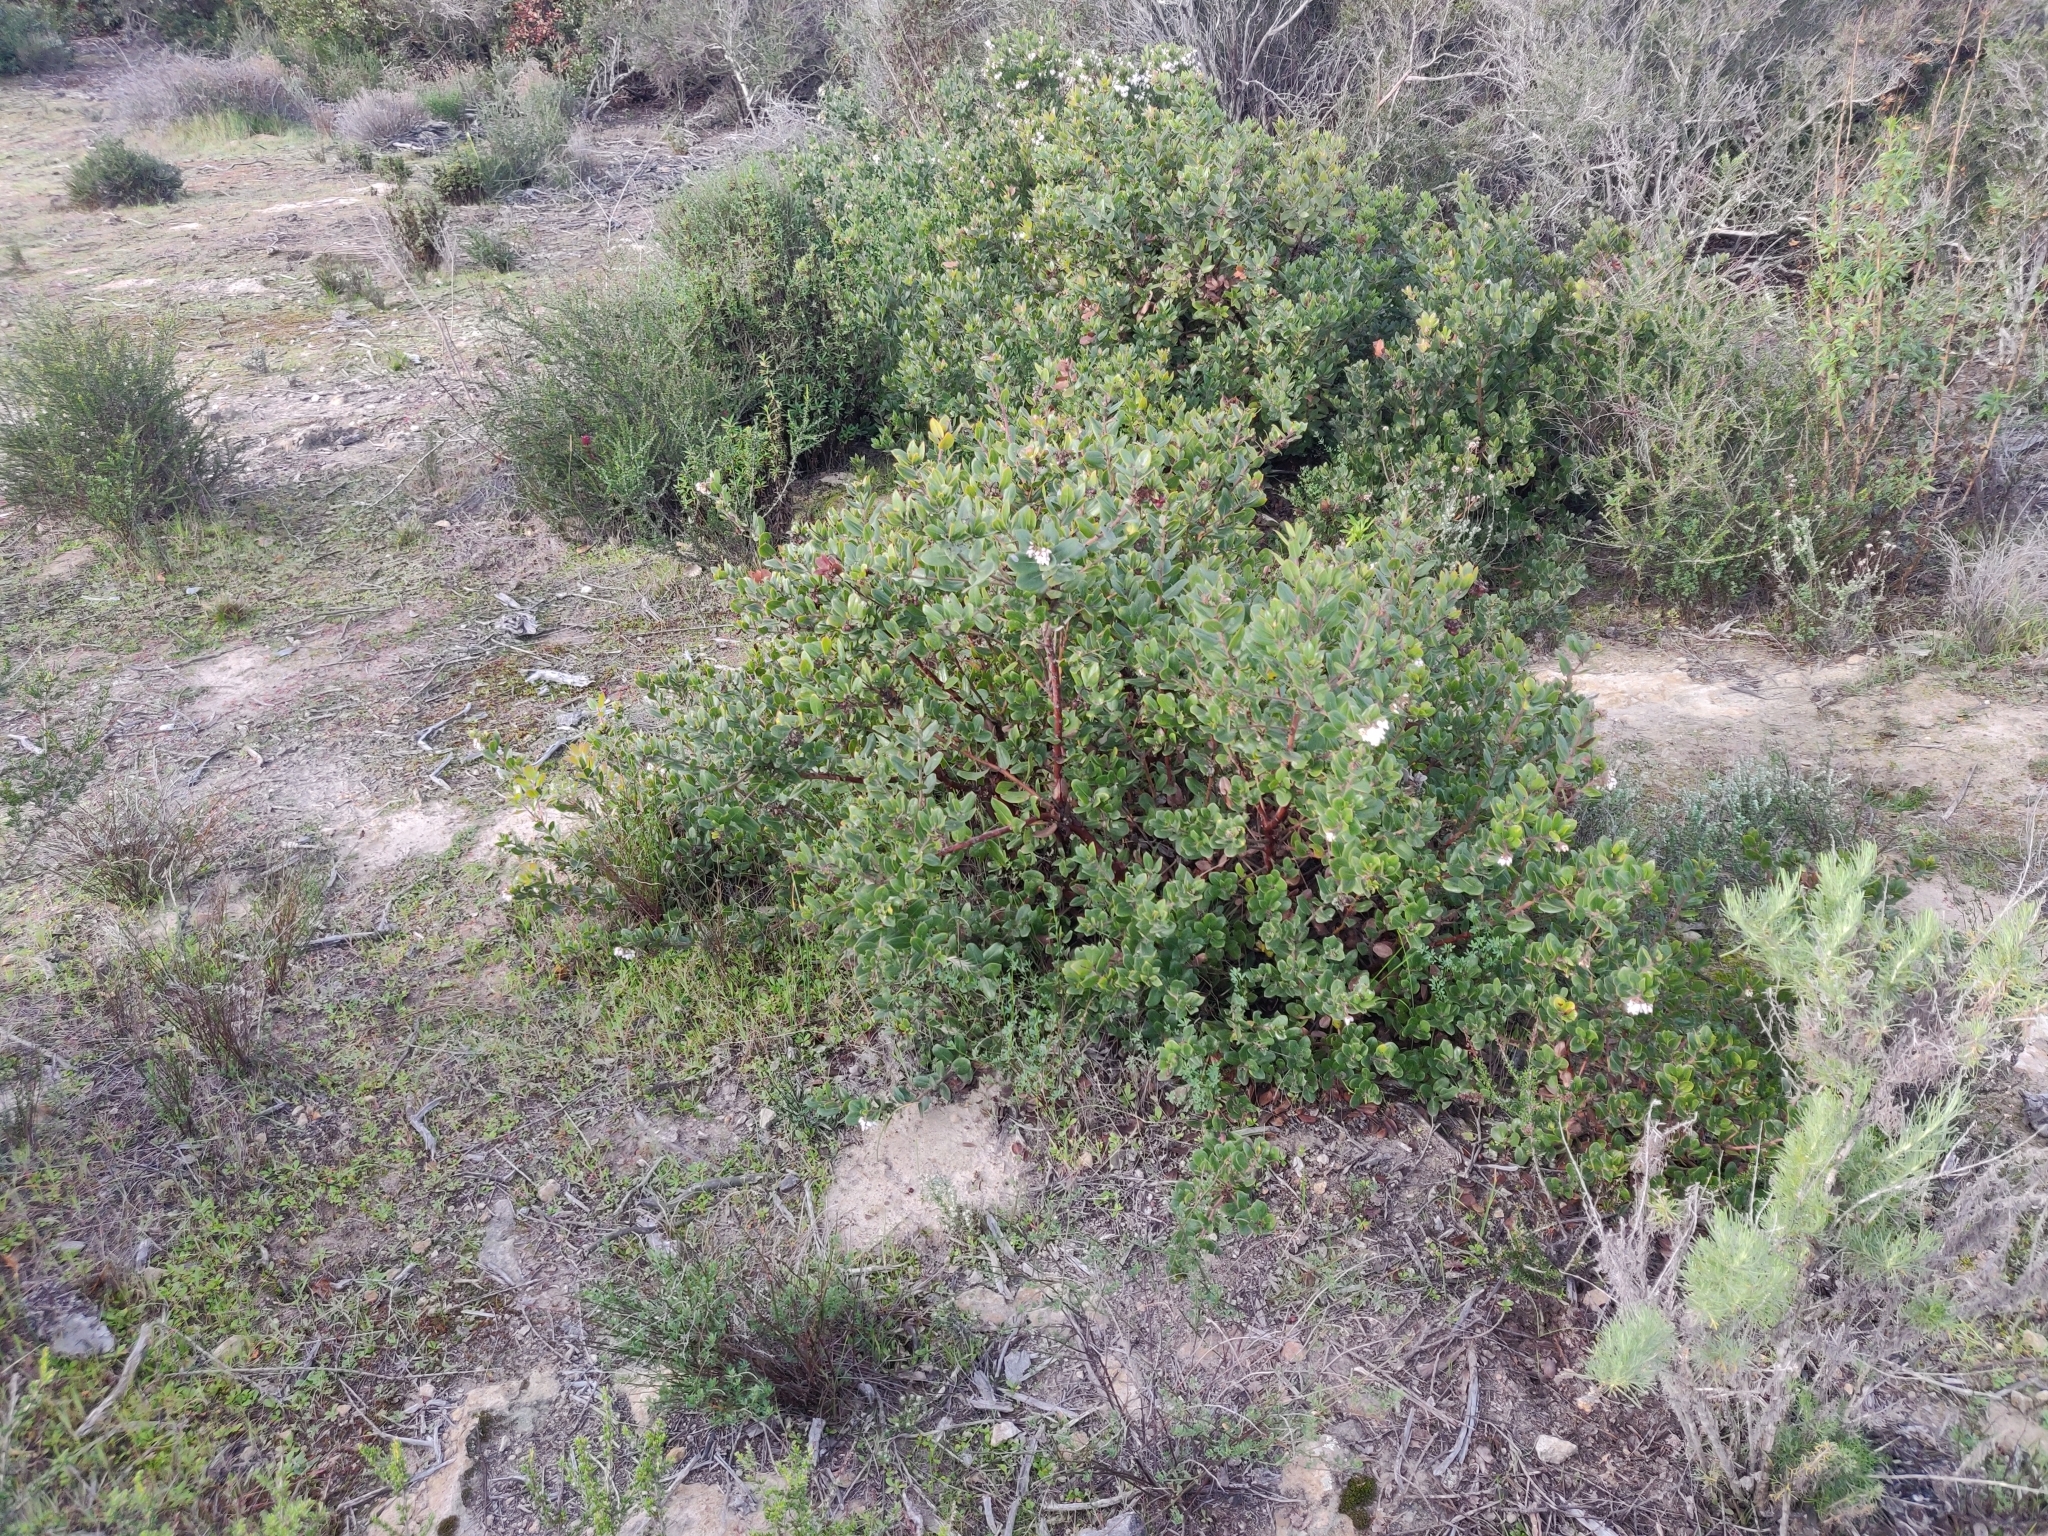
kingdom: Plantae
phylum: Tracheophyta
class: Magnoliopsida
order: Ericales
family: Ericaceae
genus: Arctostaphylos
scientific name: Arctostaphylos crustacea
